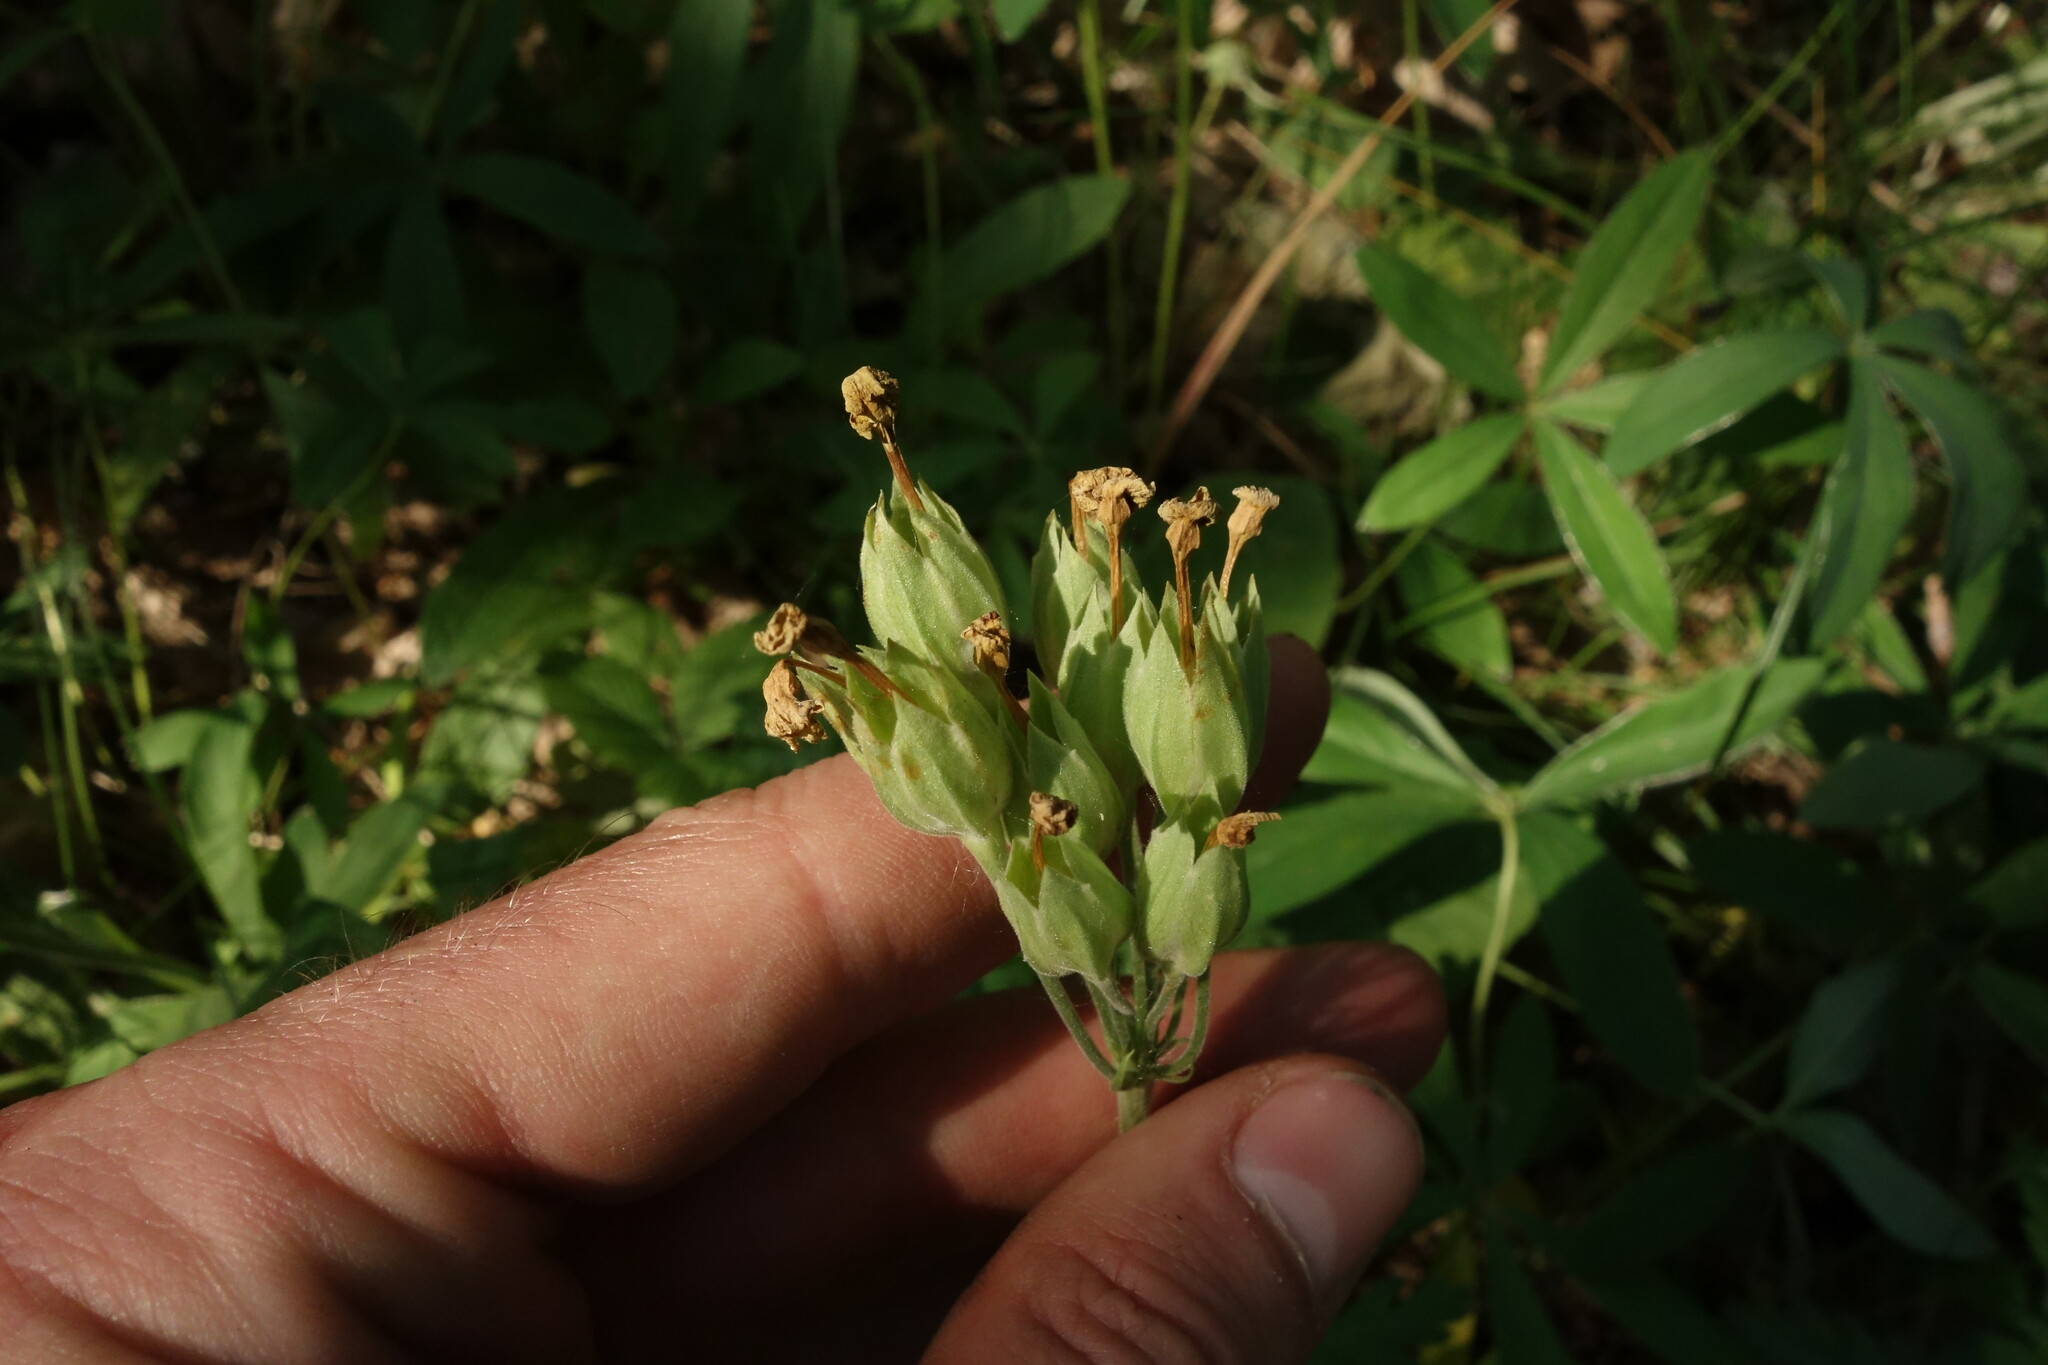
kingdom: Plantae
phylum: Tracheophyta
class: Magnoliopsida
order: Ericales
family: Primulaceae
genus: Primula
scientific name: Primula veris
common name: Cowslip
